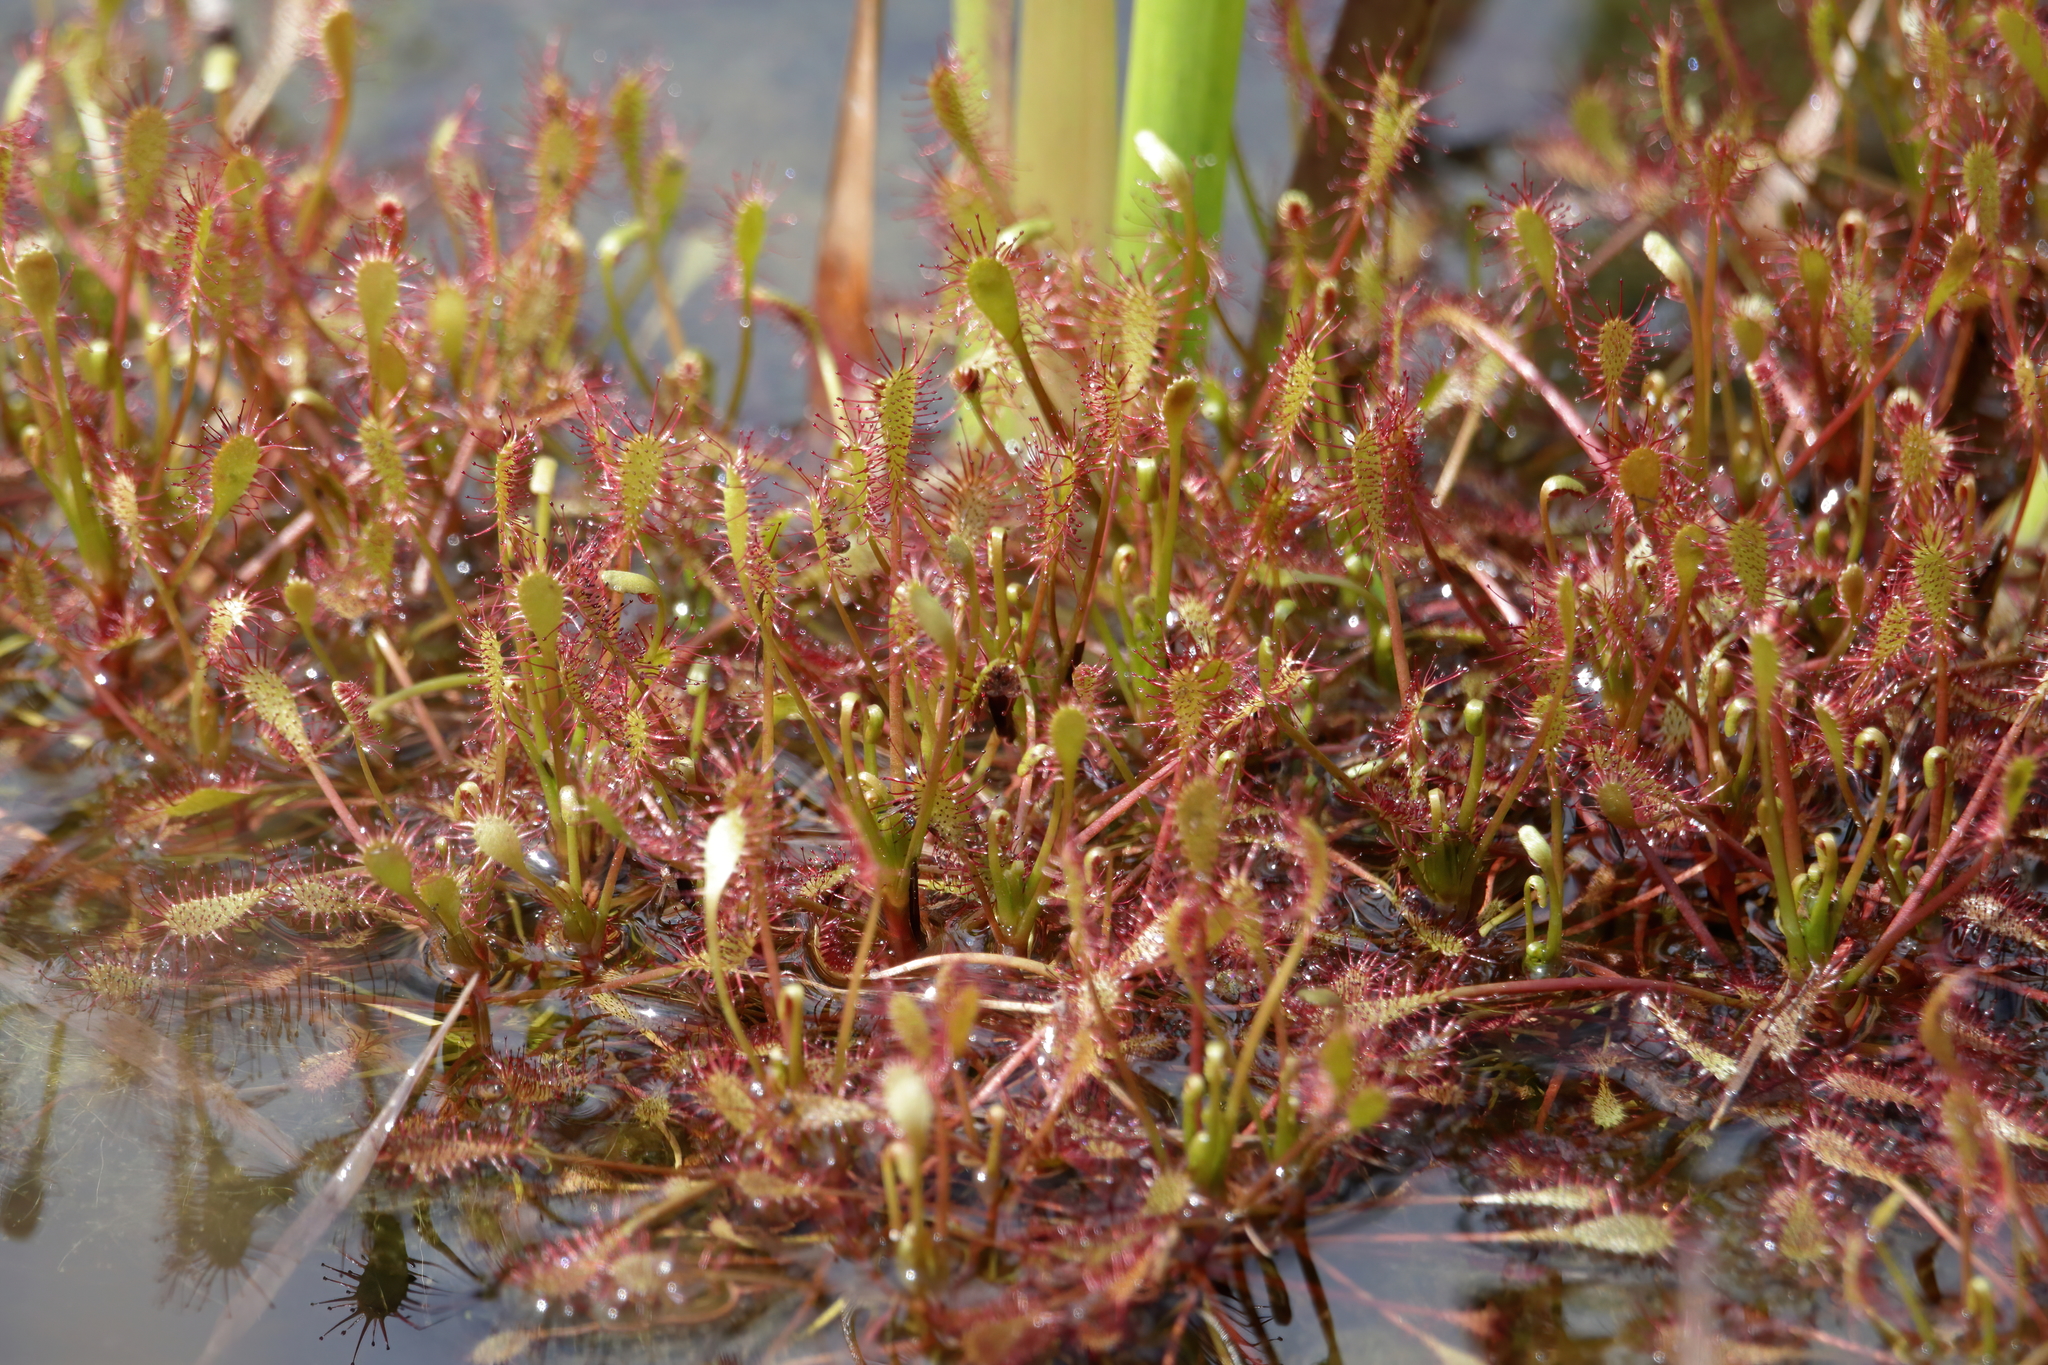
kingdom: Plantae
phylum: Tracheophyta
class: Magnoliopsida
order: Caryophyllales
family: Droseraceae
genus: Drosera
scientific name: Drosera intermedia
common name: Oblong-leaved sundew
